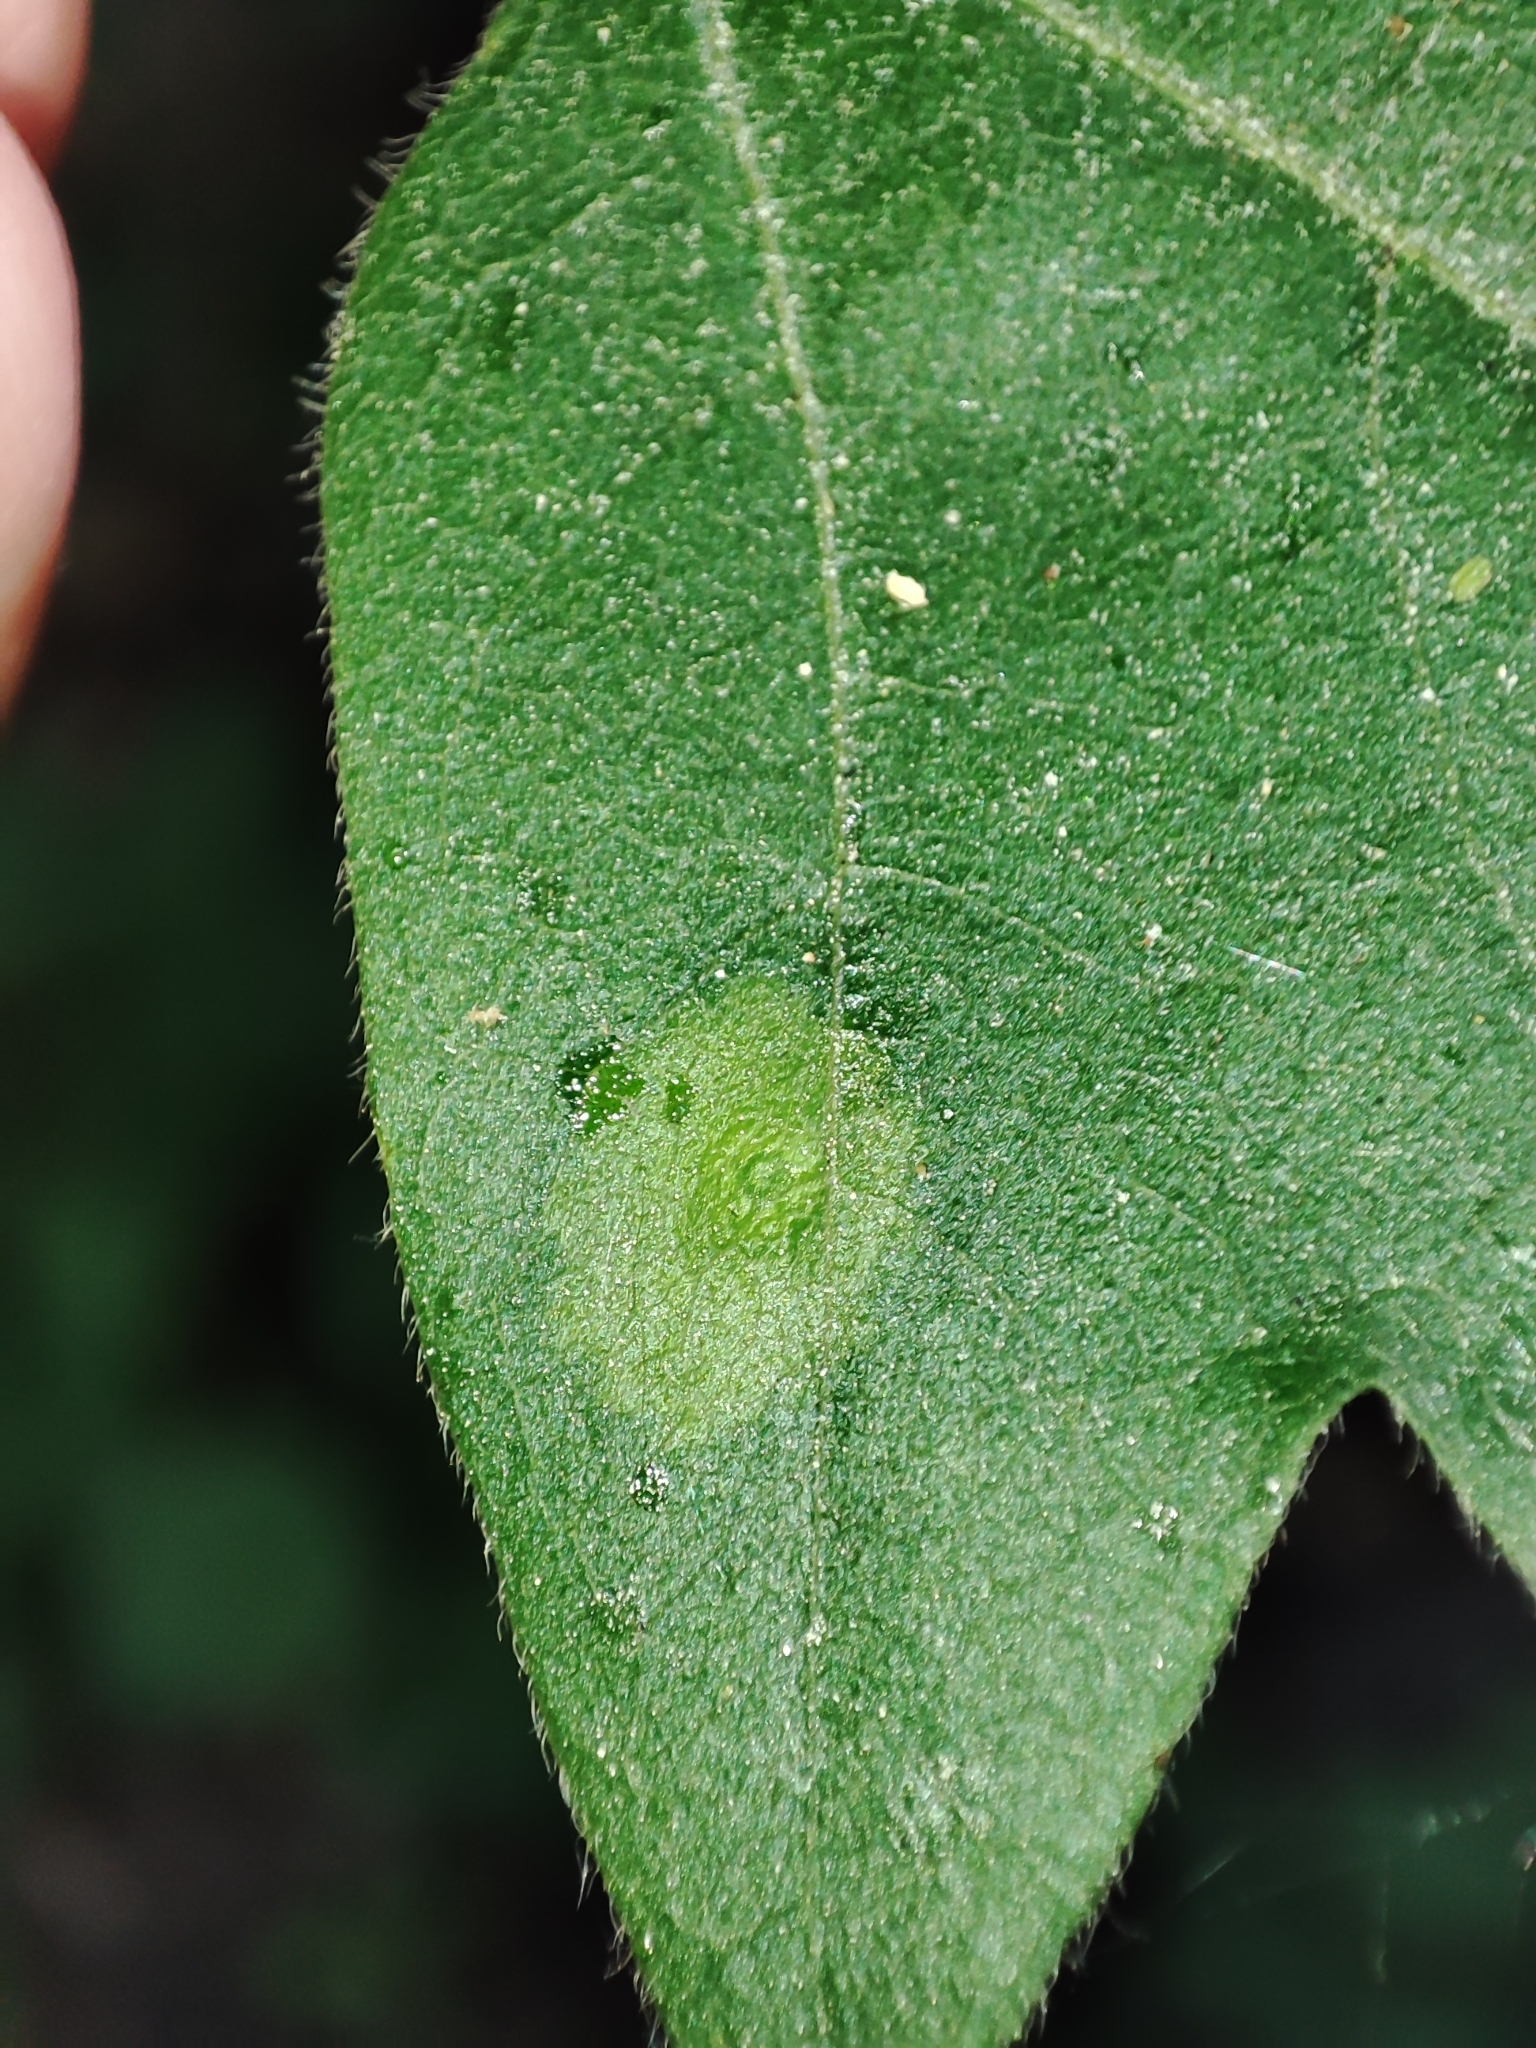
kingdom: Plantae
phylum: Tracheophyta
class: Magnoliopsida
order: Sapindales
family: Sapindaceae
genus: Acer
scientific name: Acer campestre
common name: Field maple
